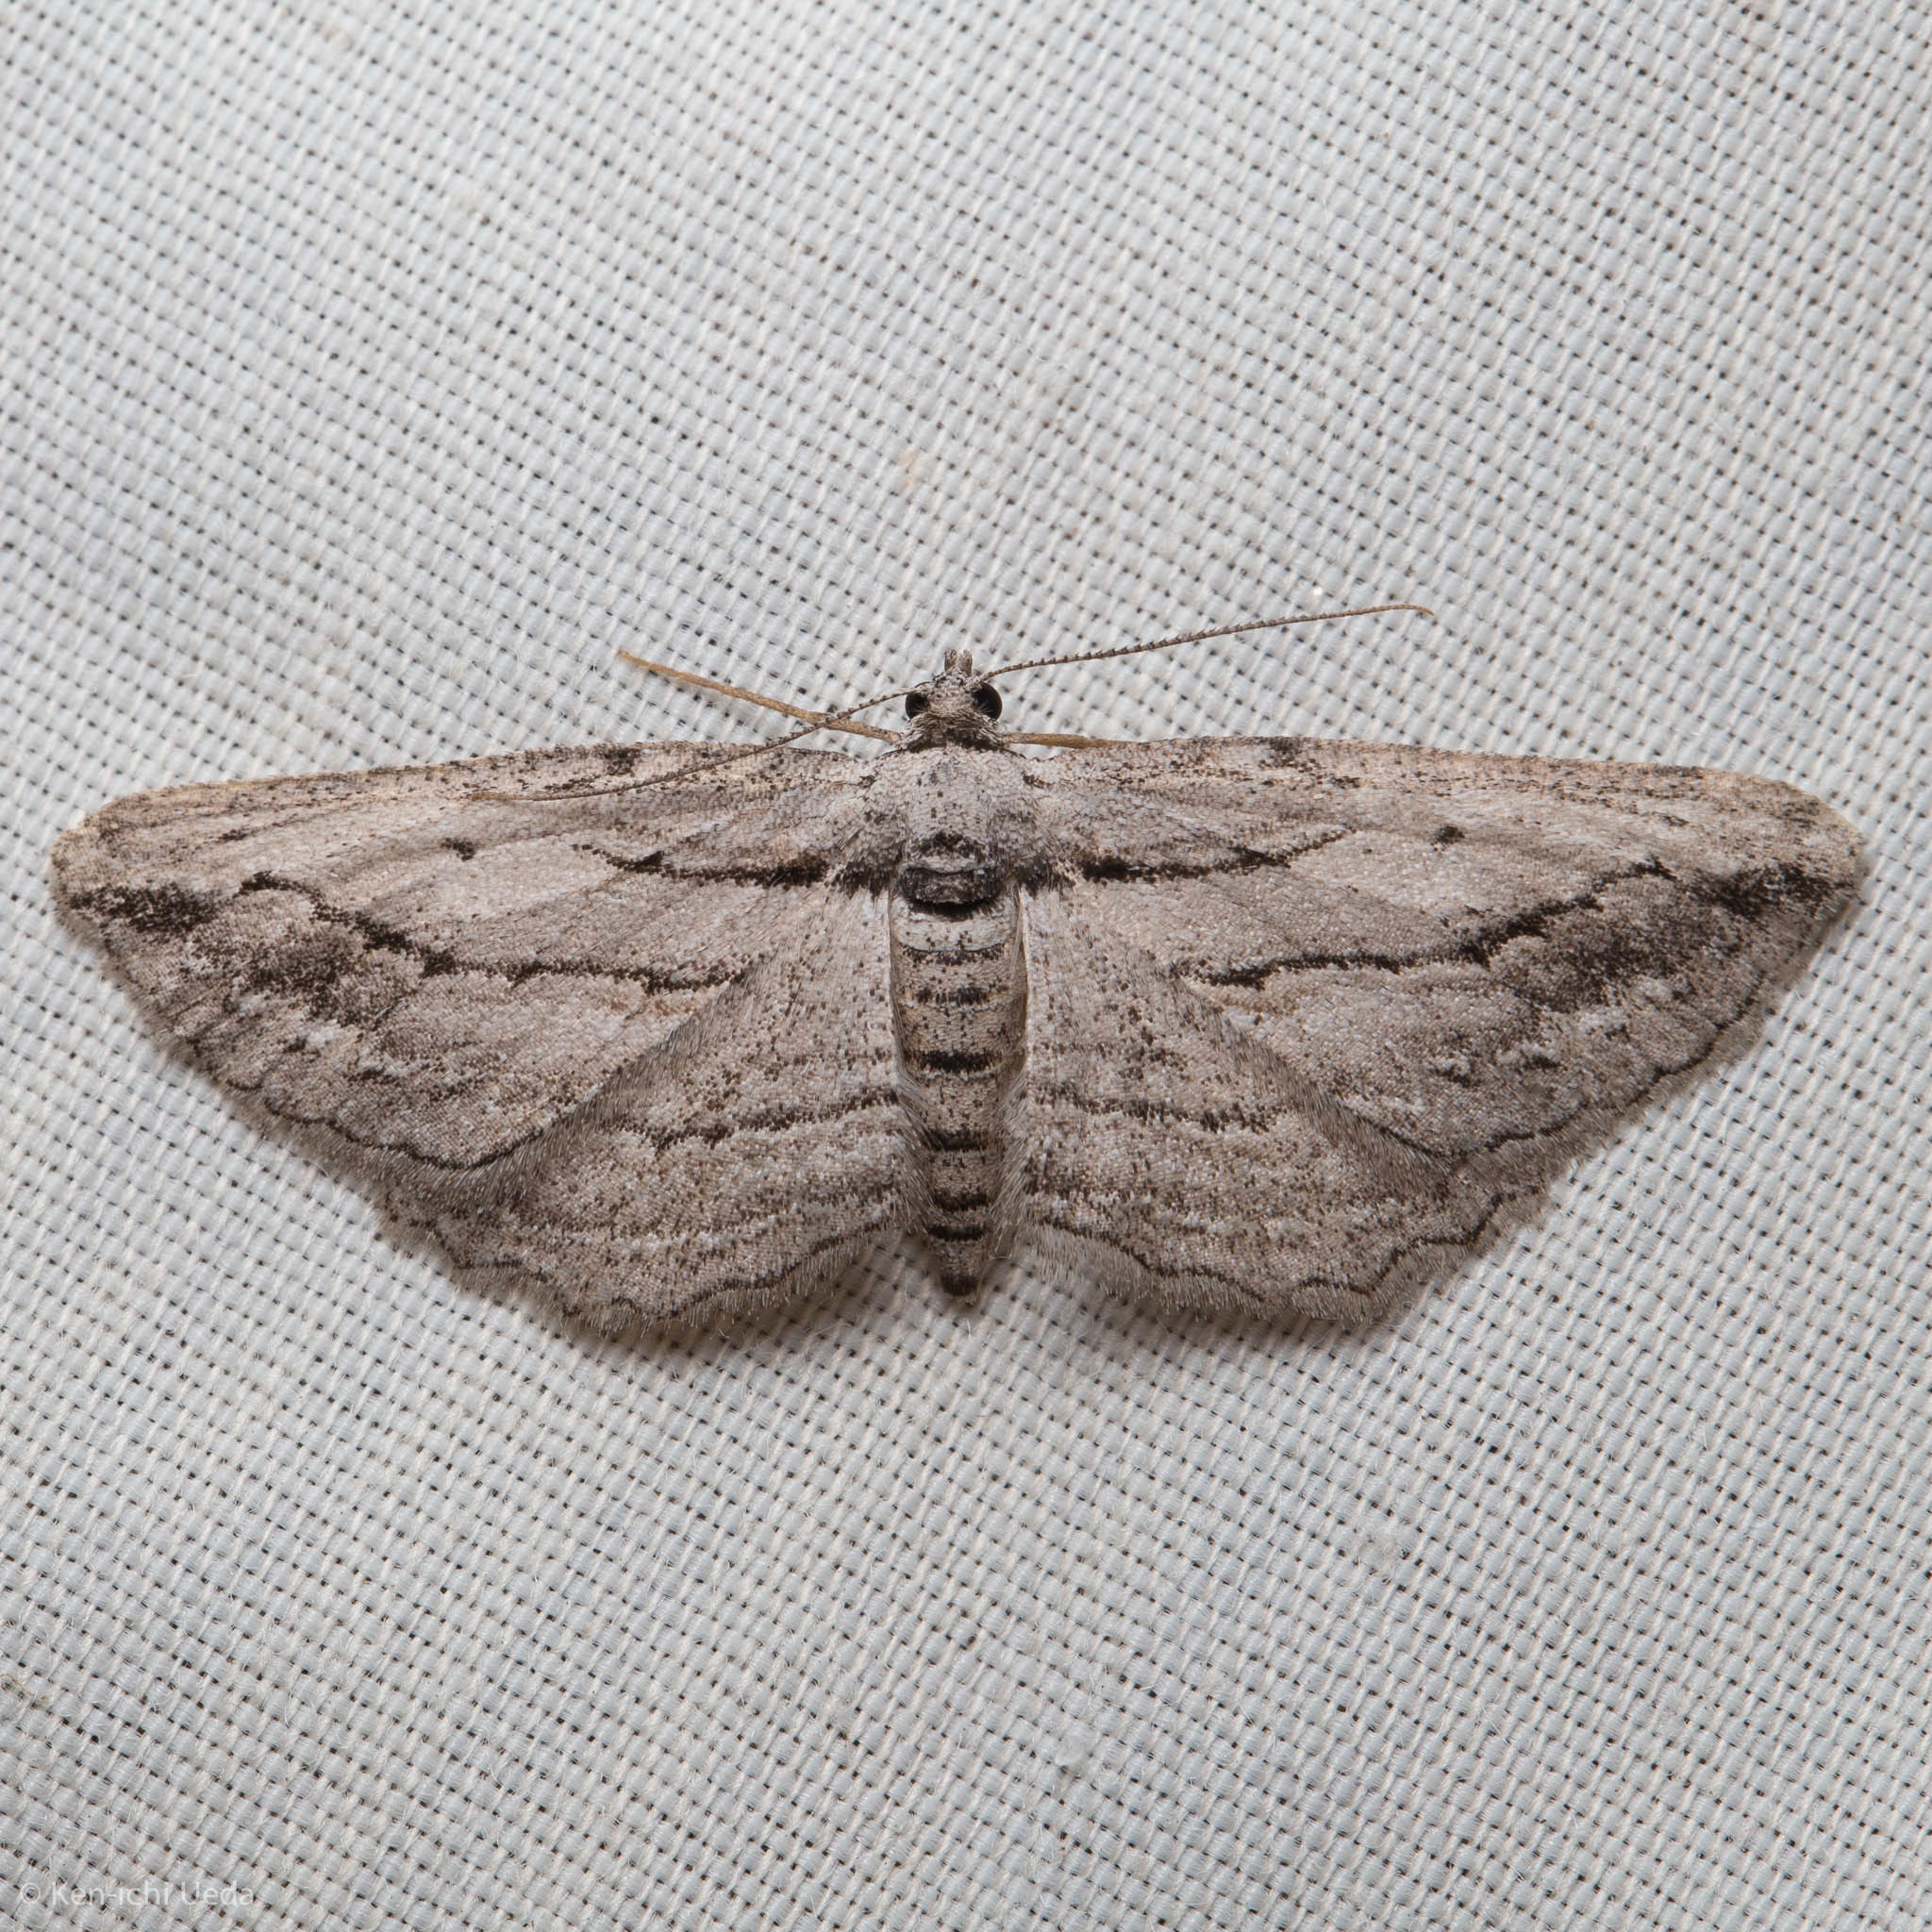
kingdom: Animalia
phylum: Arthropoda
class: Insecta
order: Lepidoptera
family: Geometridae
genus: Pterotaea
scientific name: Pterotaea lamiaria
